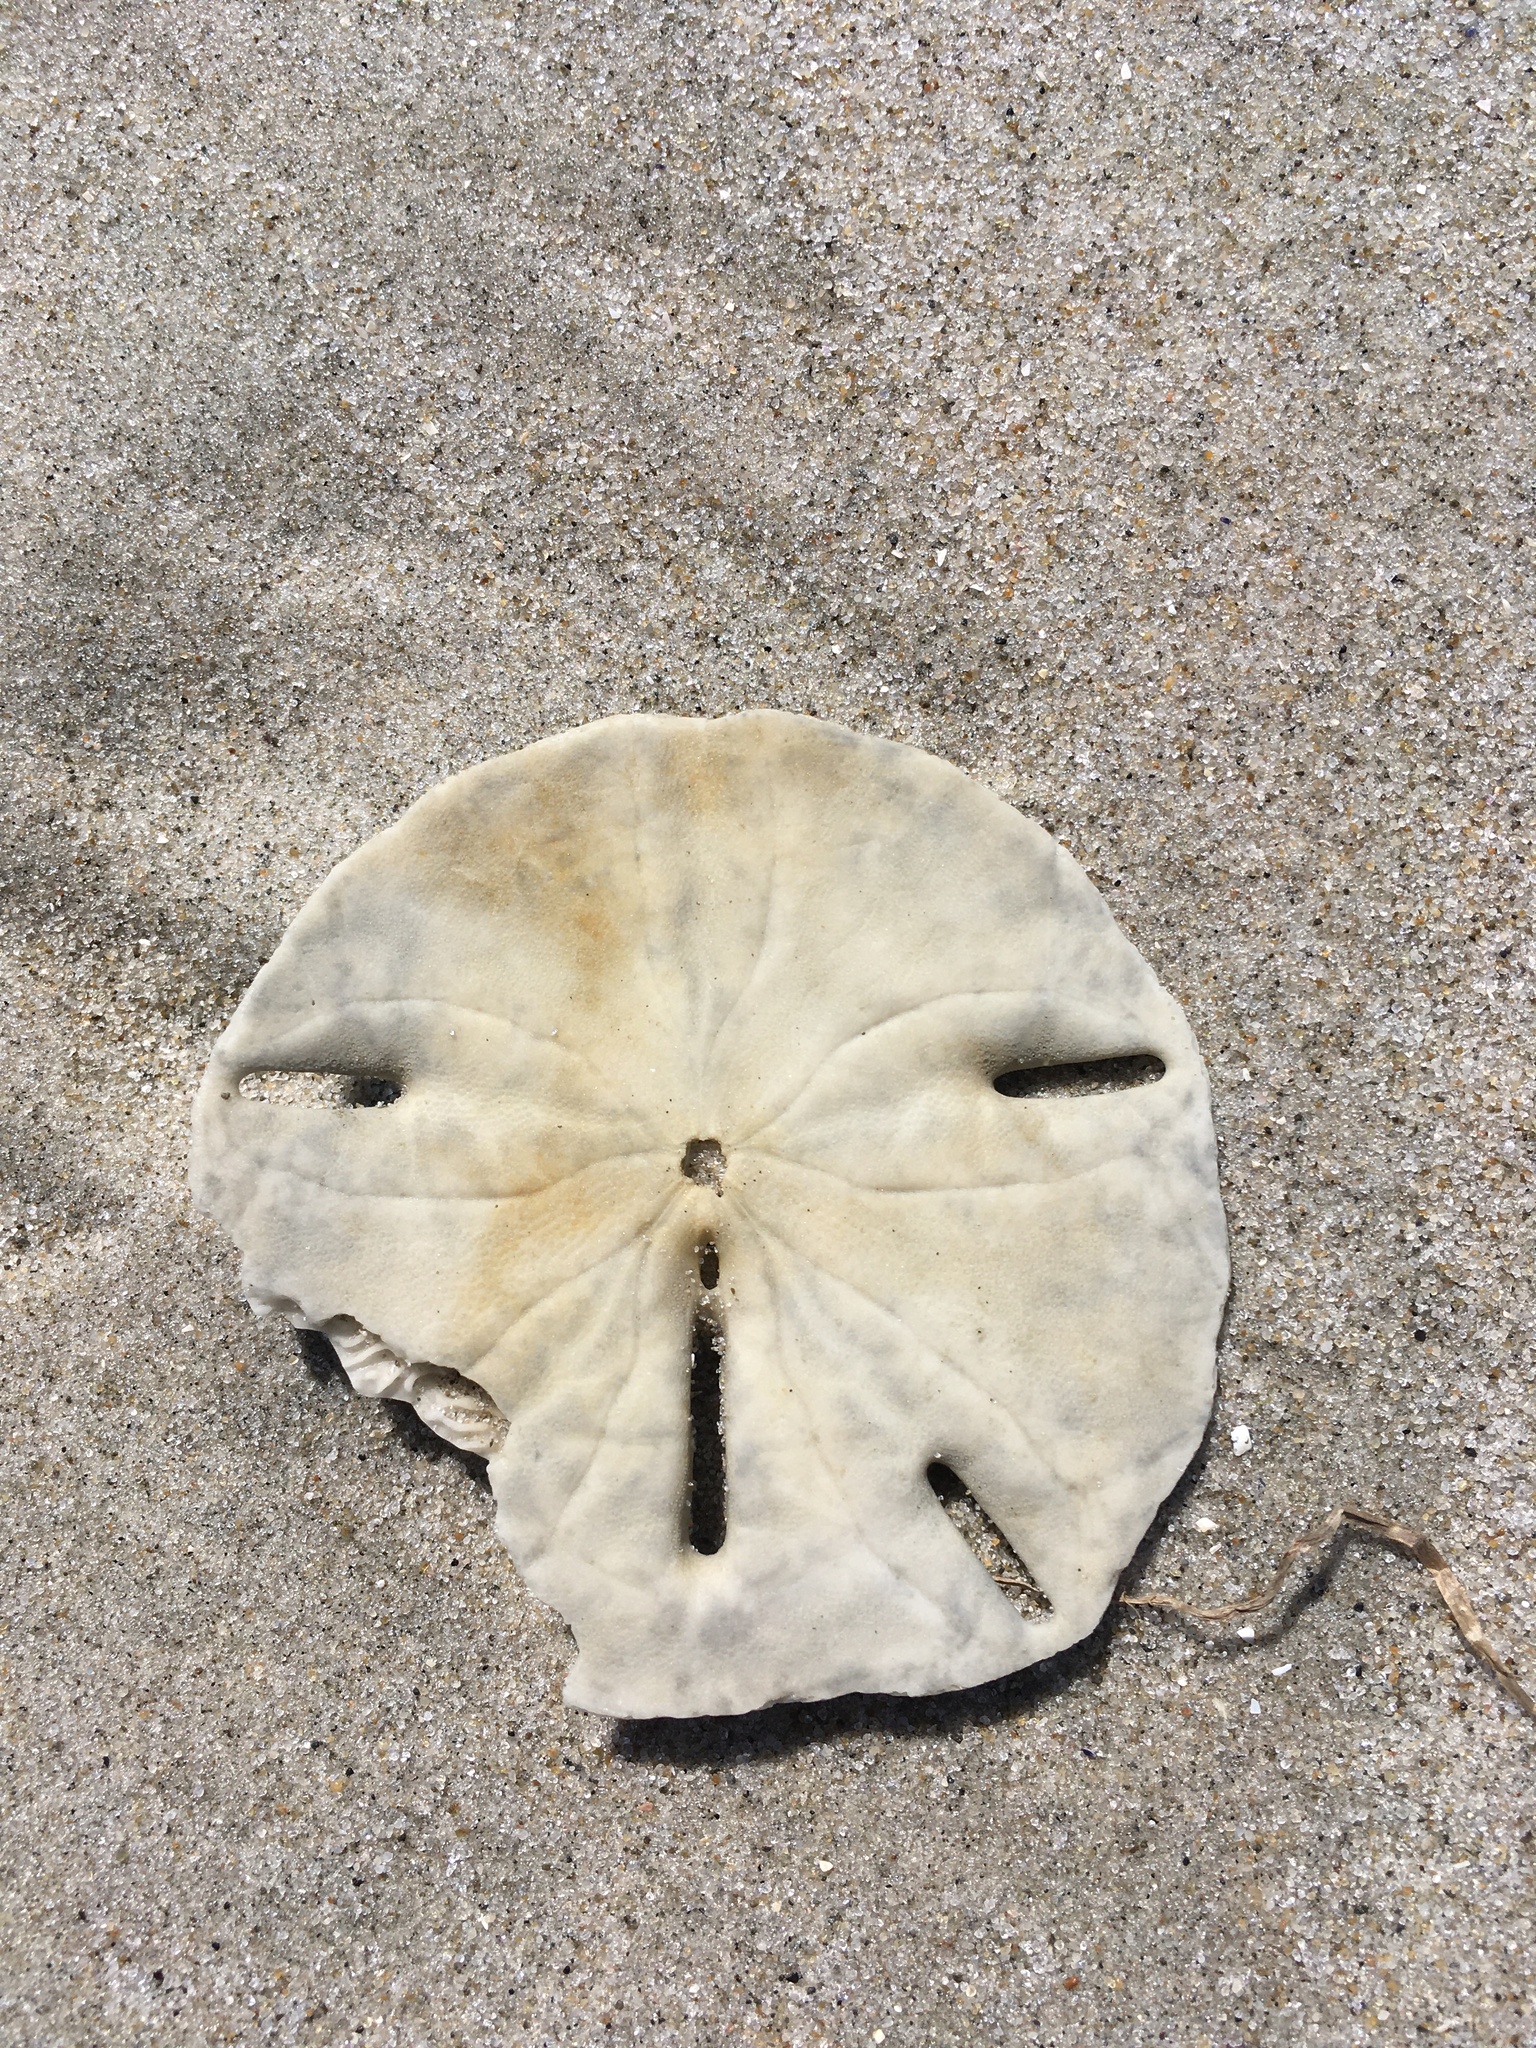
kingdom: Animalia
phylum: Echinodermata
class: Echinoidea
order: Echinolampadacea
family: Mellitidae
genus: Mellita
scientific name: Mellita quinquiesperforata
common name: Sand dollar
